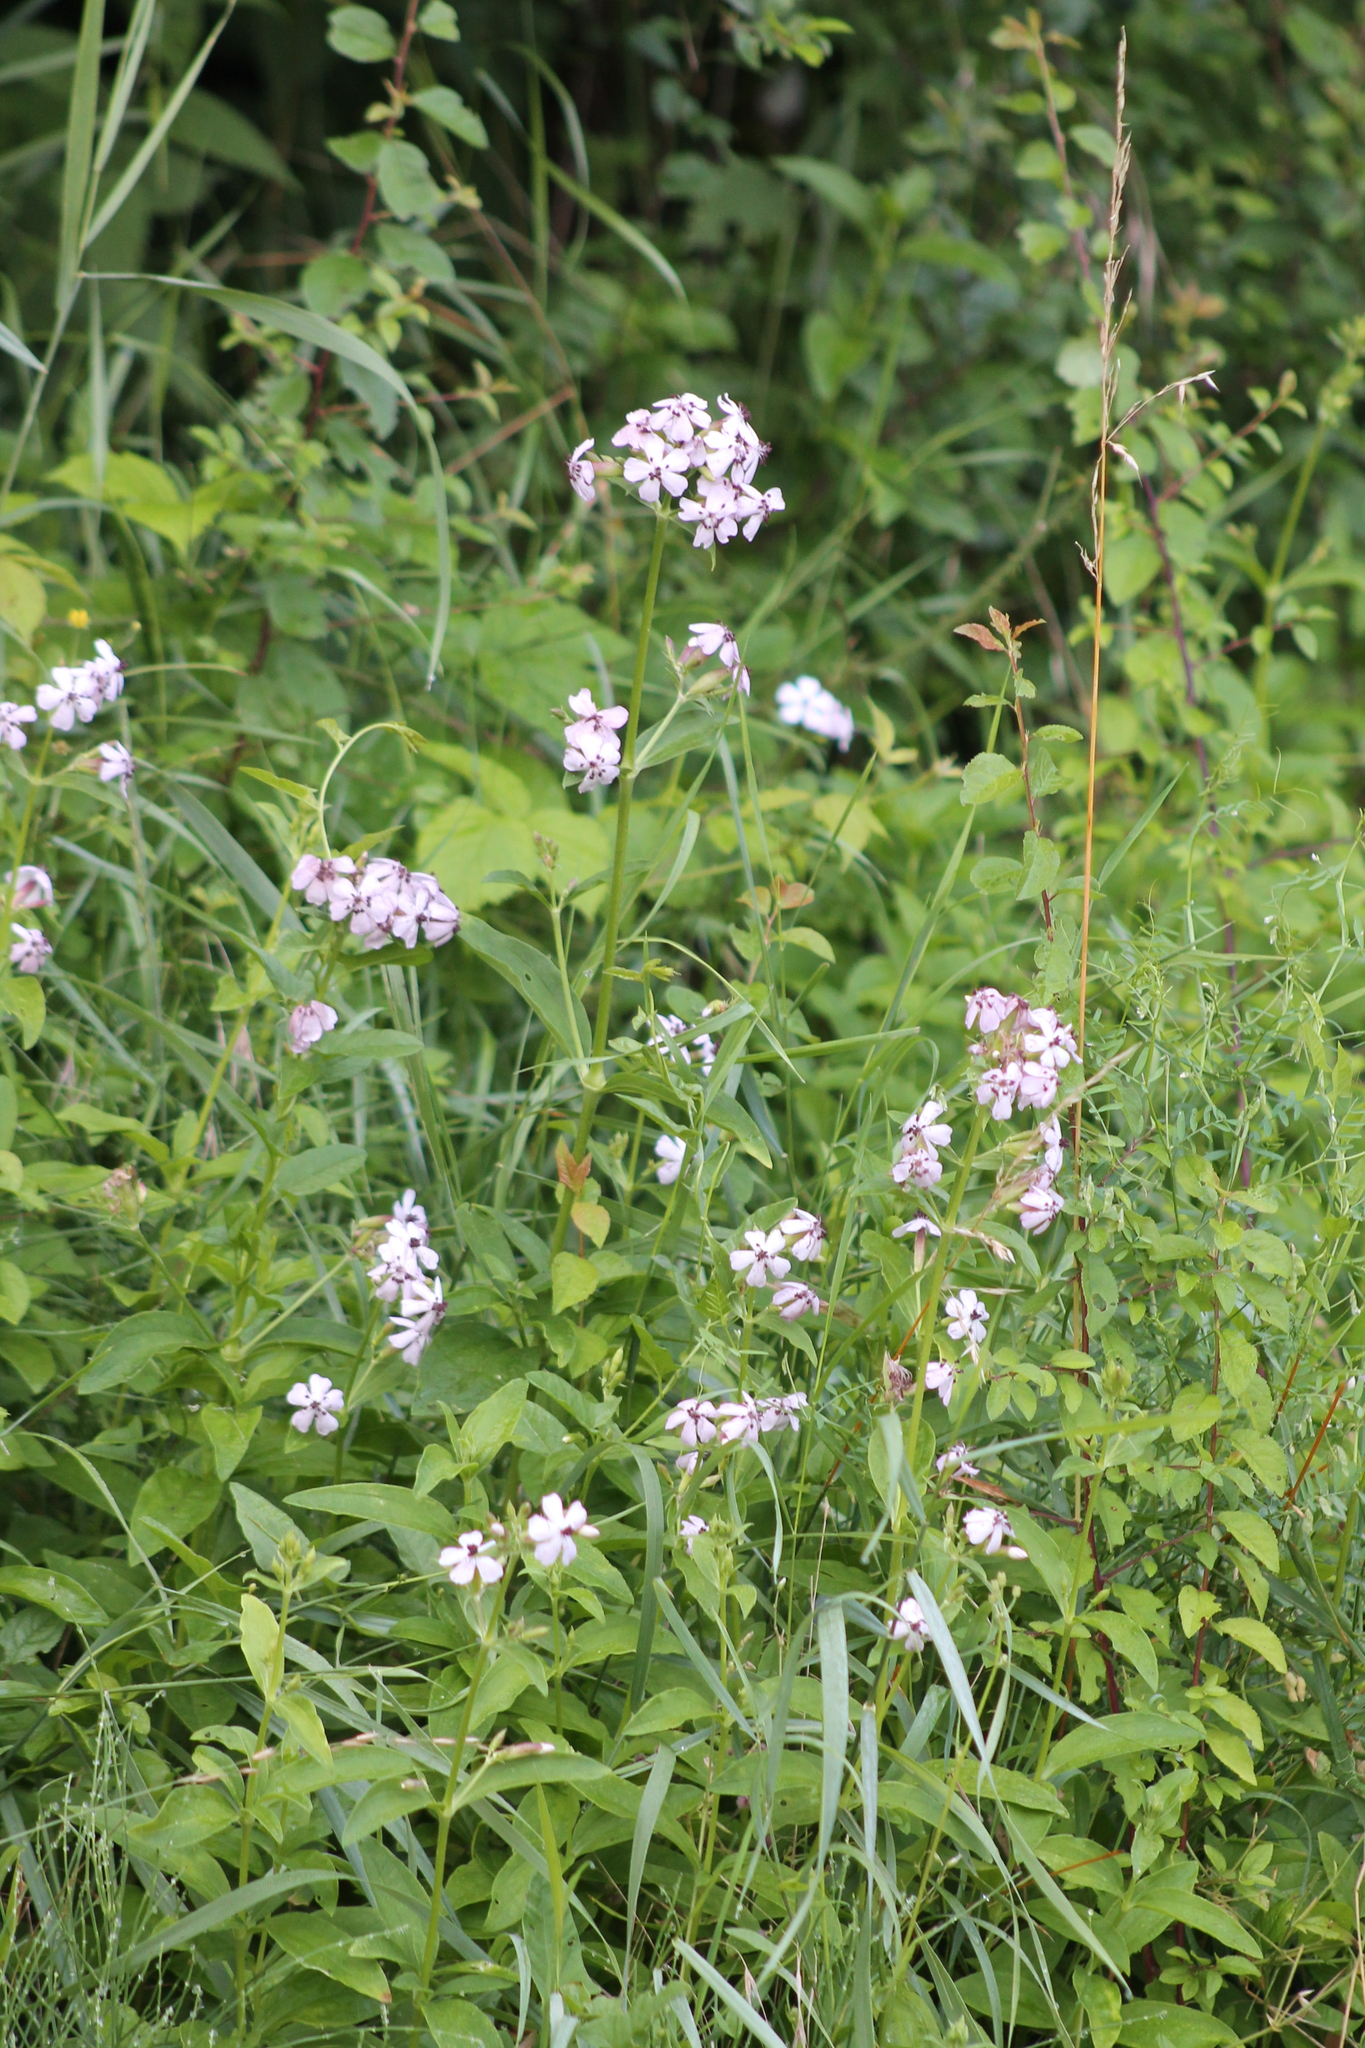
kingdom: Plantae
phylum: Tracheophyta
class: Magnoliopsida
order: Caryophyllales
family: Caryophyllaceae
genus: Saponaria
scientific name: Saponaria officinalis
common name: Soapwort
